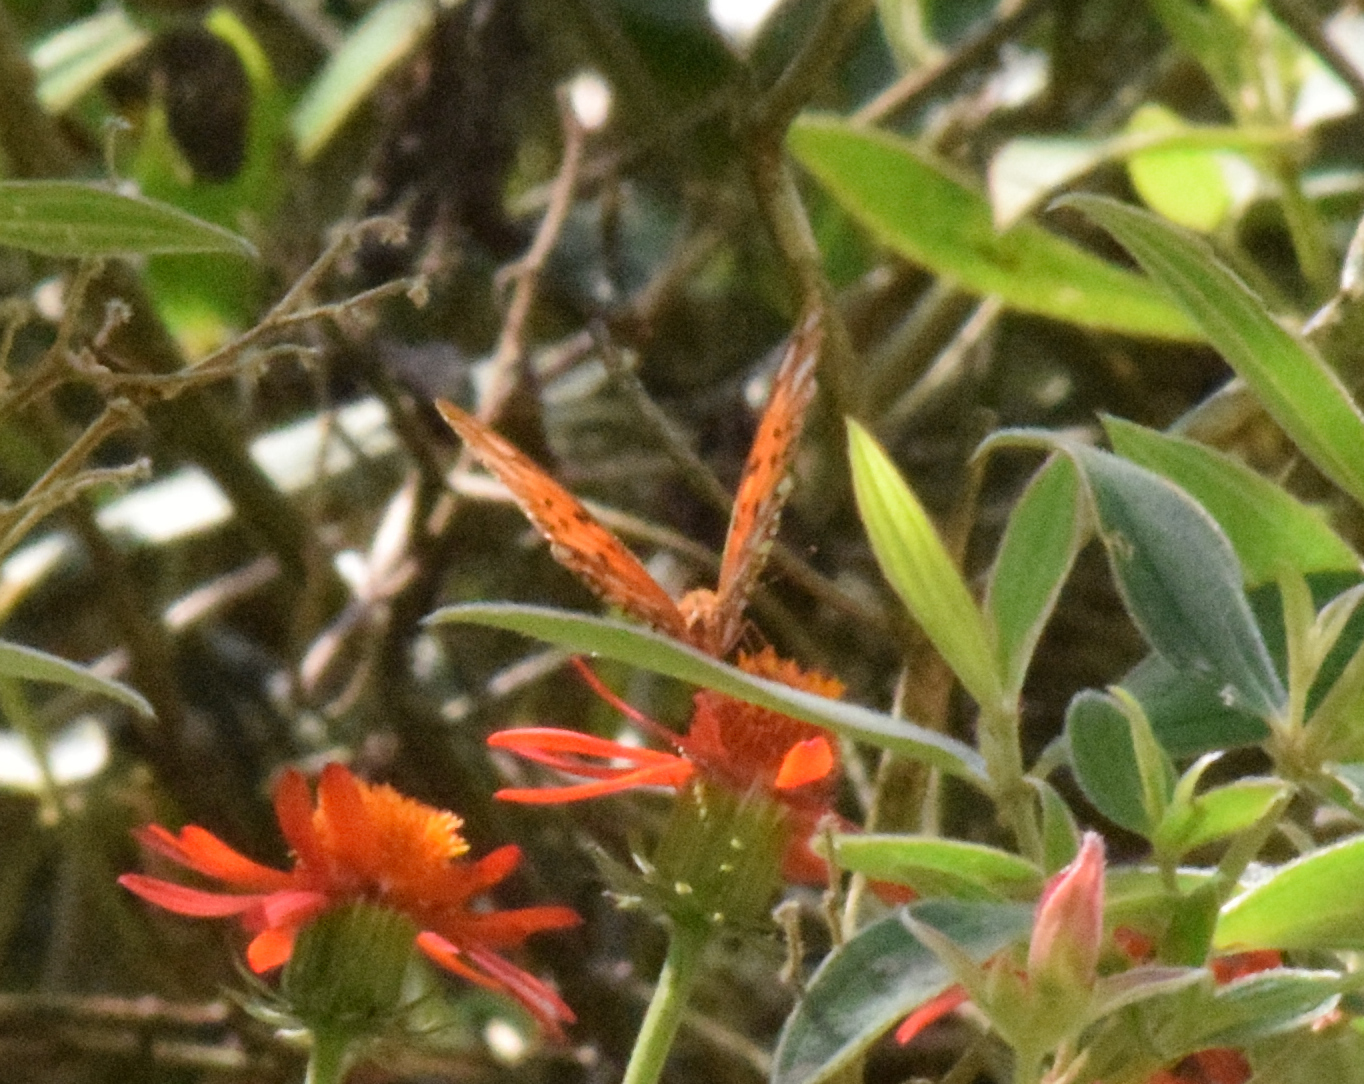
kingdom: Animalia
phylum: Arthropoda
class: Insecta
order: Lepidoptera
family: Nymphalidae
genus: Dione
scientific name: Dione vanillae
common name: Gulf fritillary
